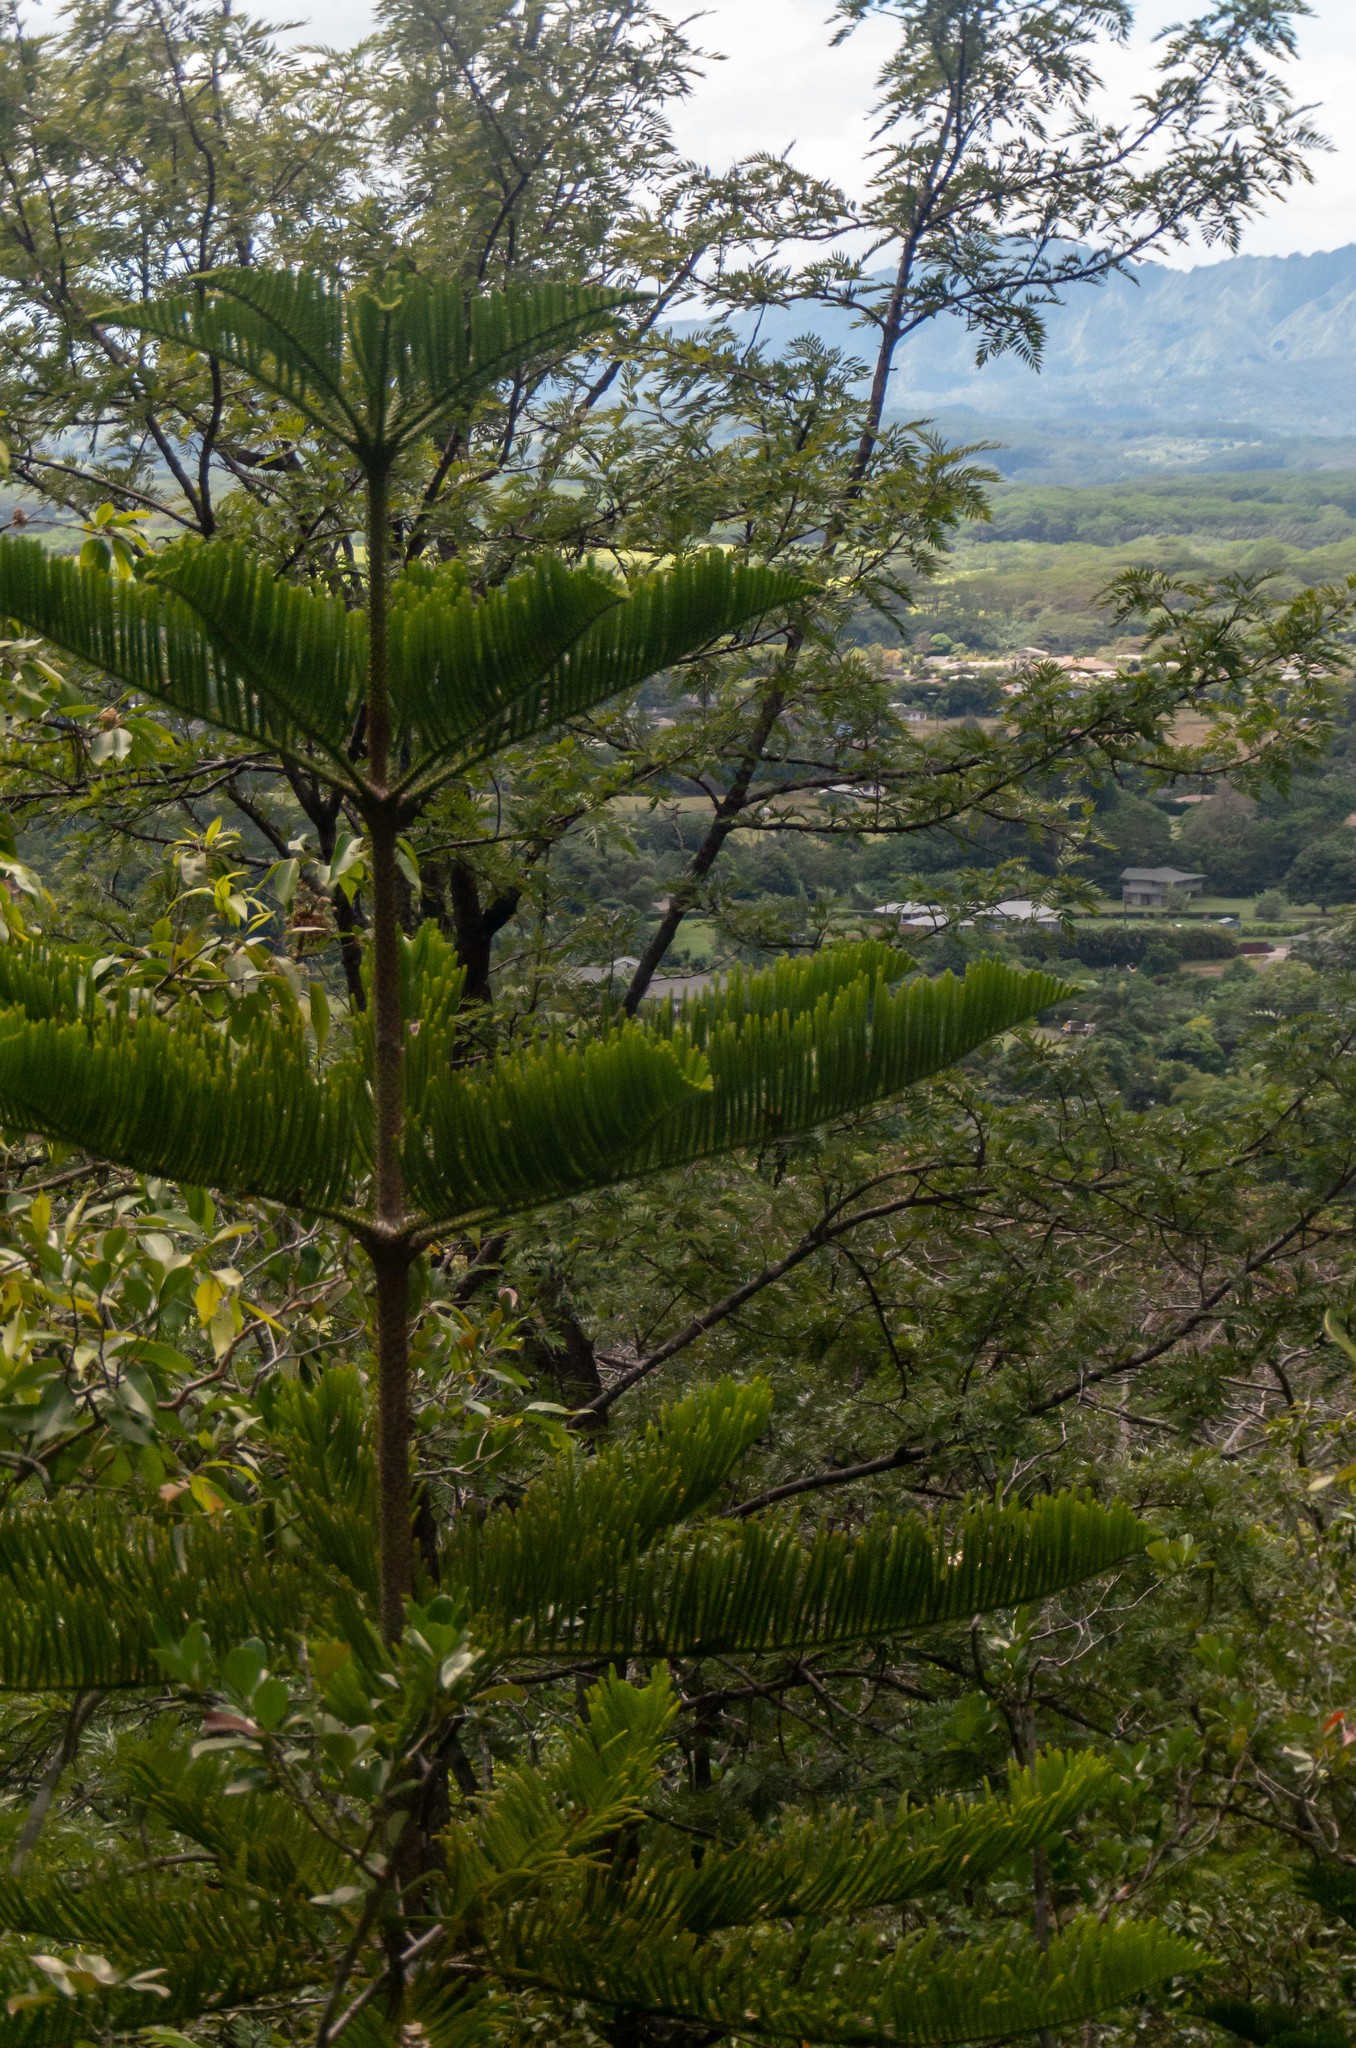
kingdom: Plantae
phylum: Tracheophyta
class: Pinopsida
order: Pinales
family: Araucariaceae
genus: Araucaria
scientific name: Araucaria heterophylla
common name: Norfolk island pine
